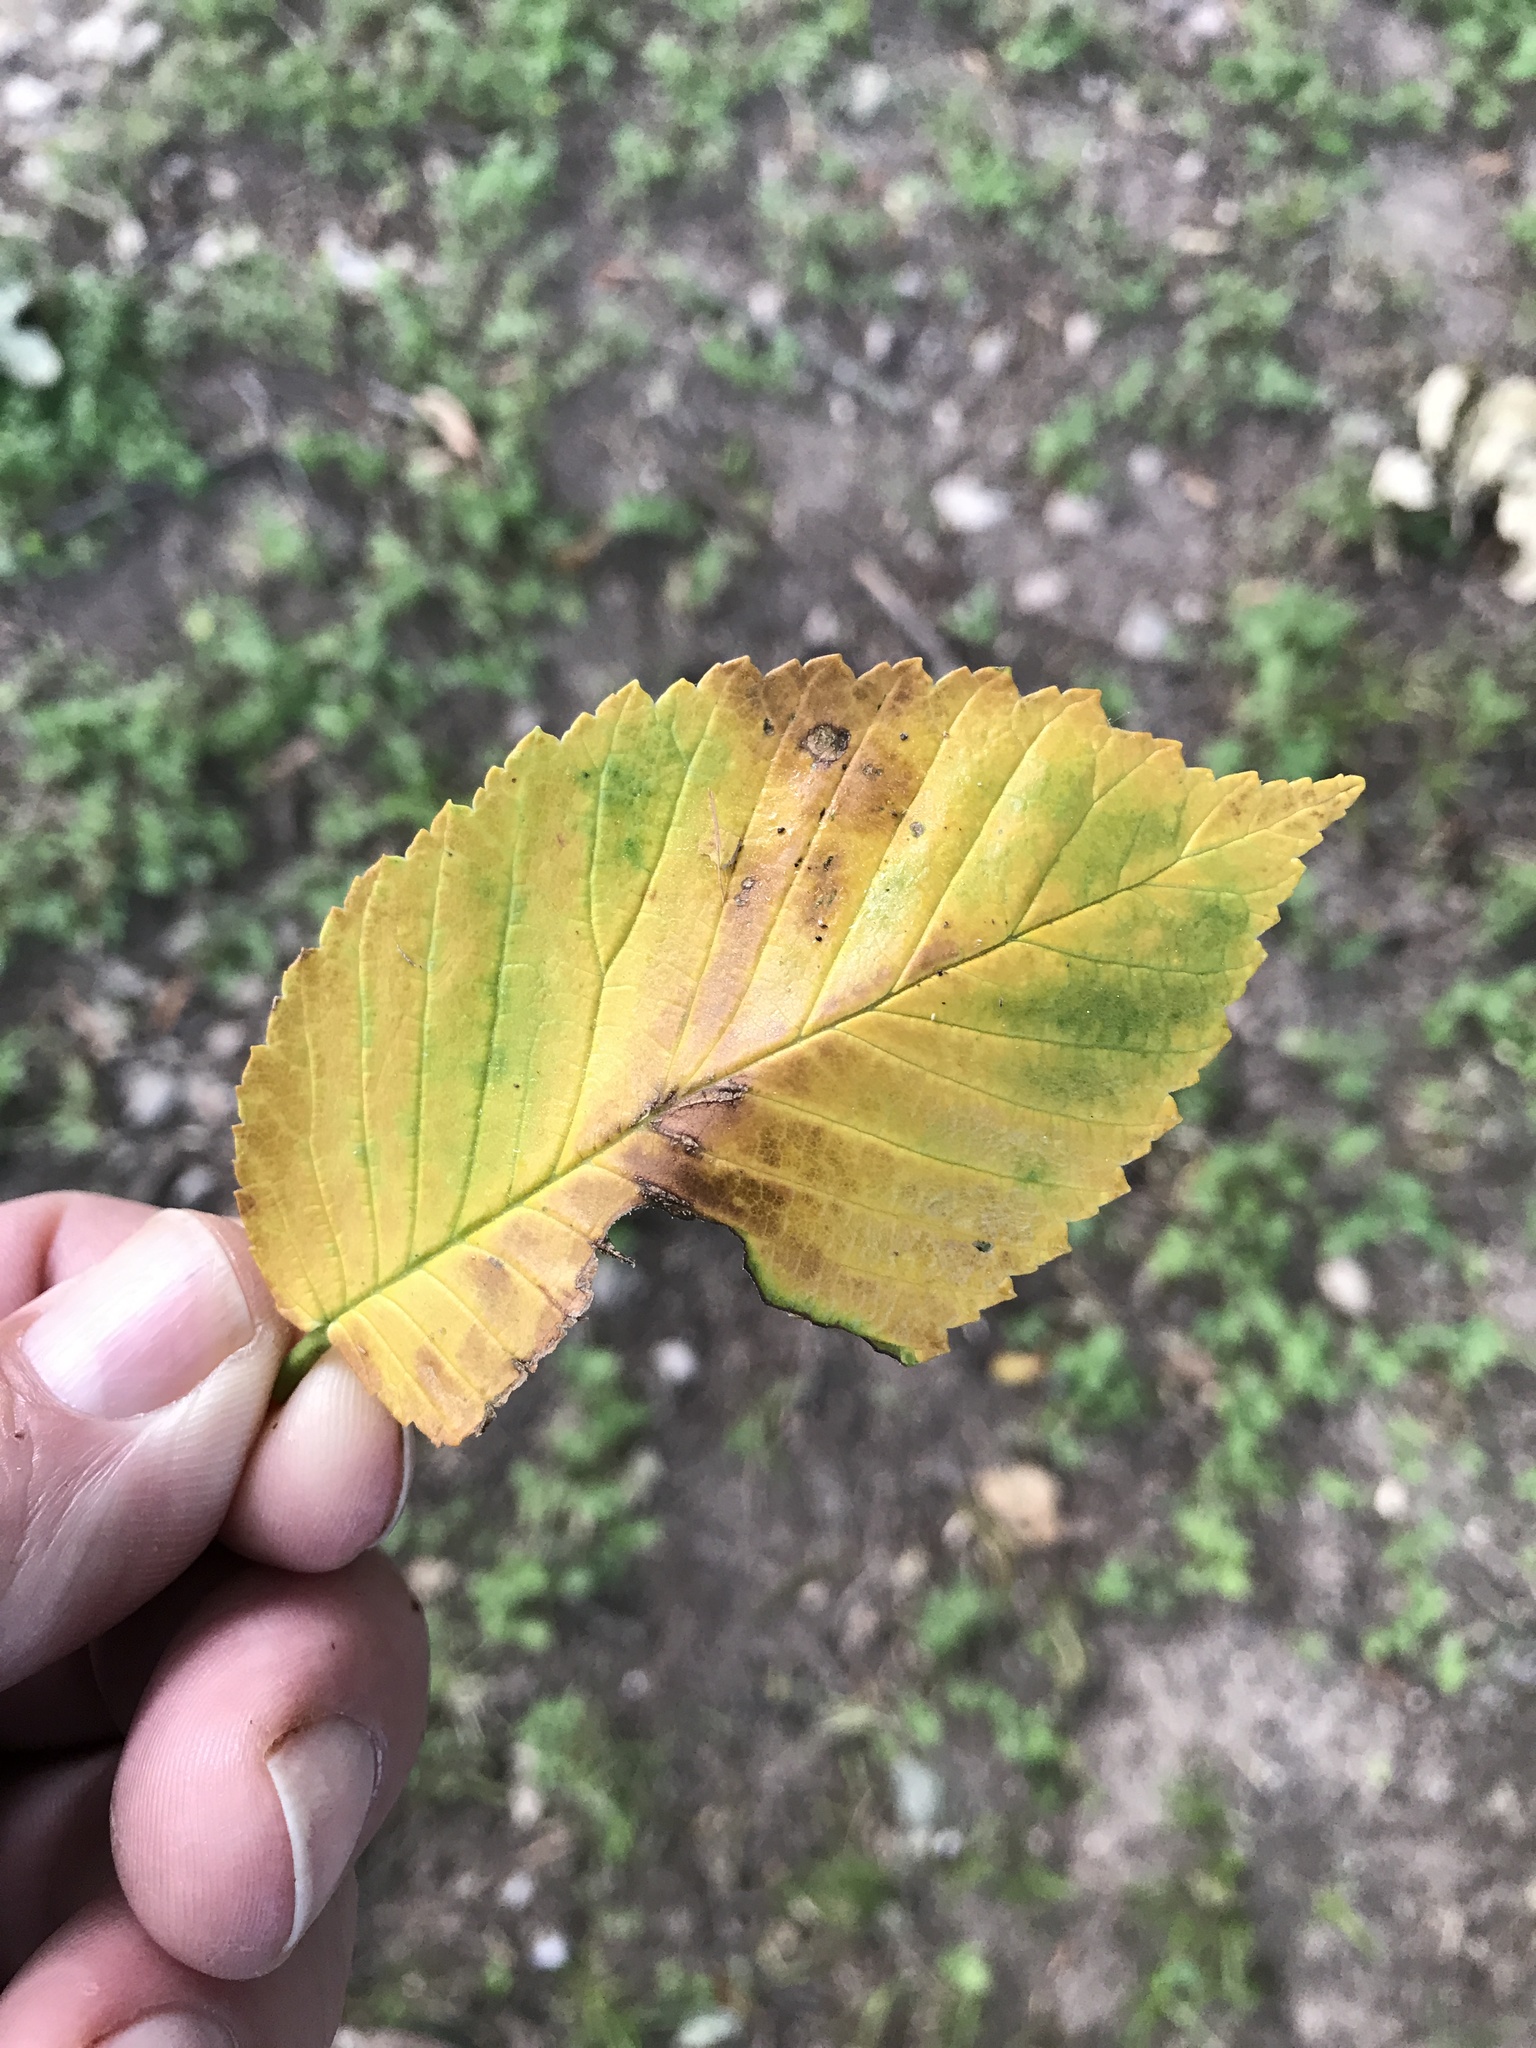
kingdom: Plantae
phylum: Tracheophyta
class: Magnoliopsida
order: Rosales
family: Ulmaceae
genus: Ulmus
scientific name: Ulmus americana
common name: American elm
